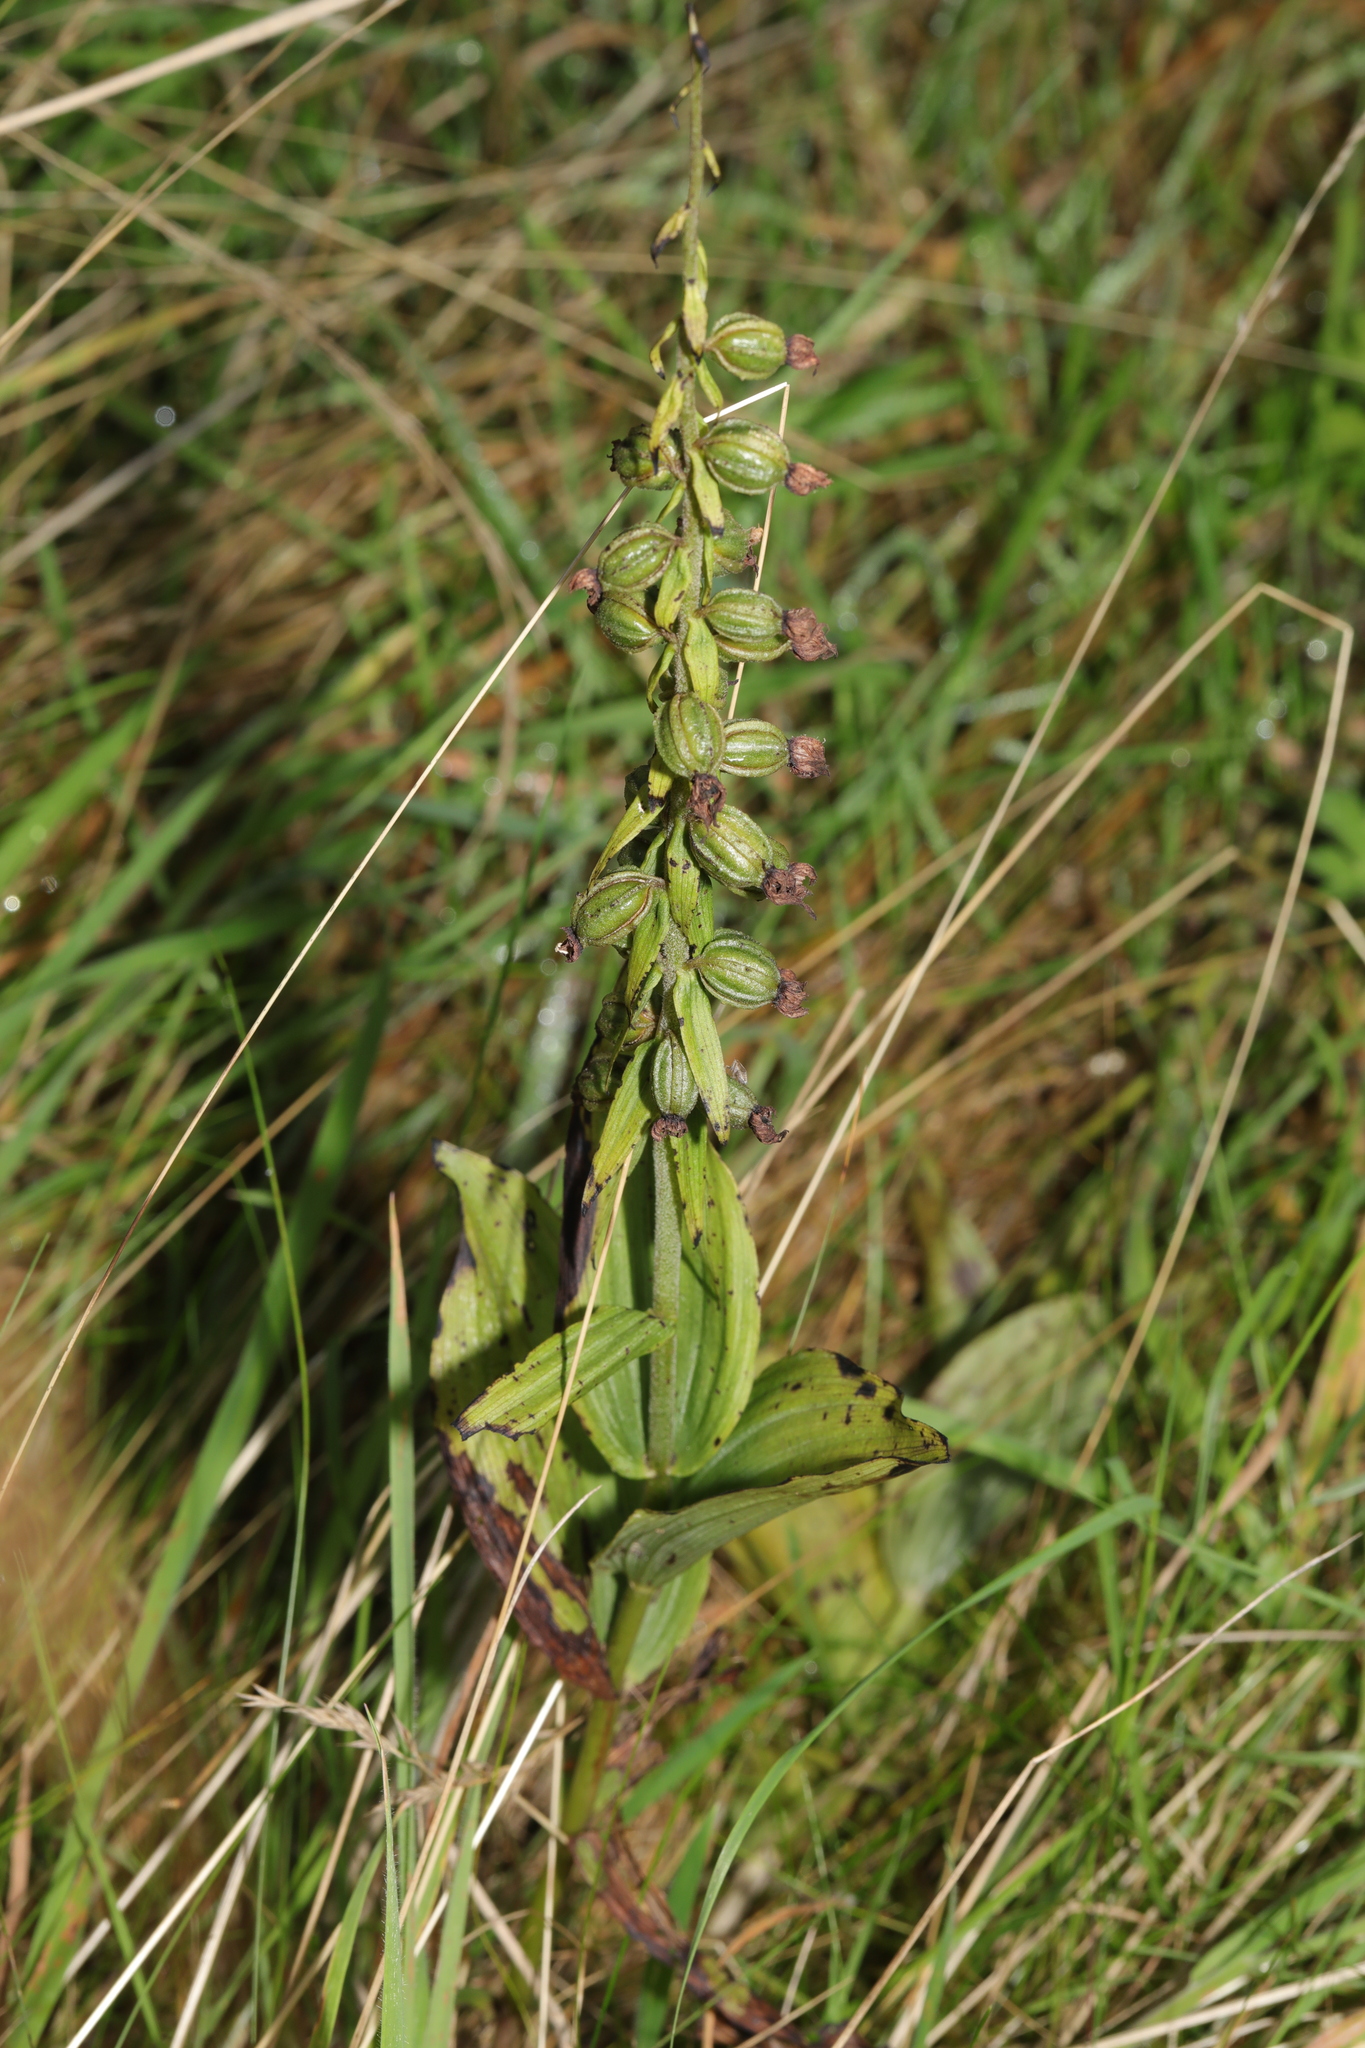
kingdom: Plantae
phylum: Tracheophyta
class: Liliopsida
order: Asparagales
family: Orchidaceae
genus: Epipactis
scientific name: Epipactis helleborine
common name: Broad-leaved helleborine
